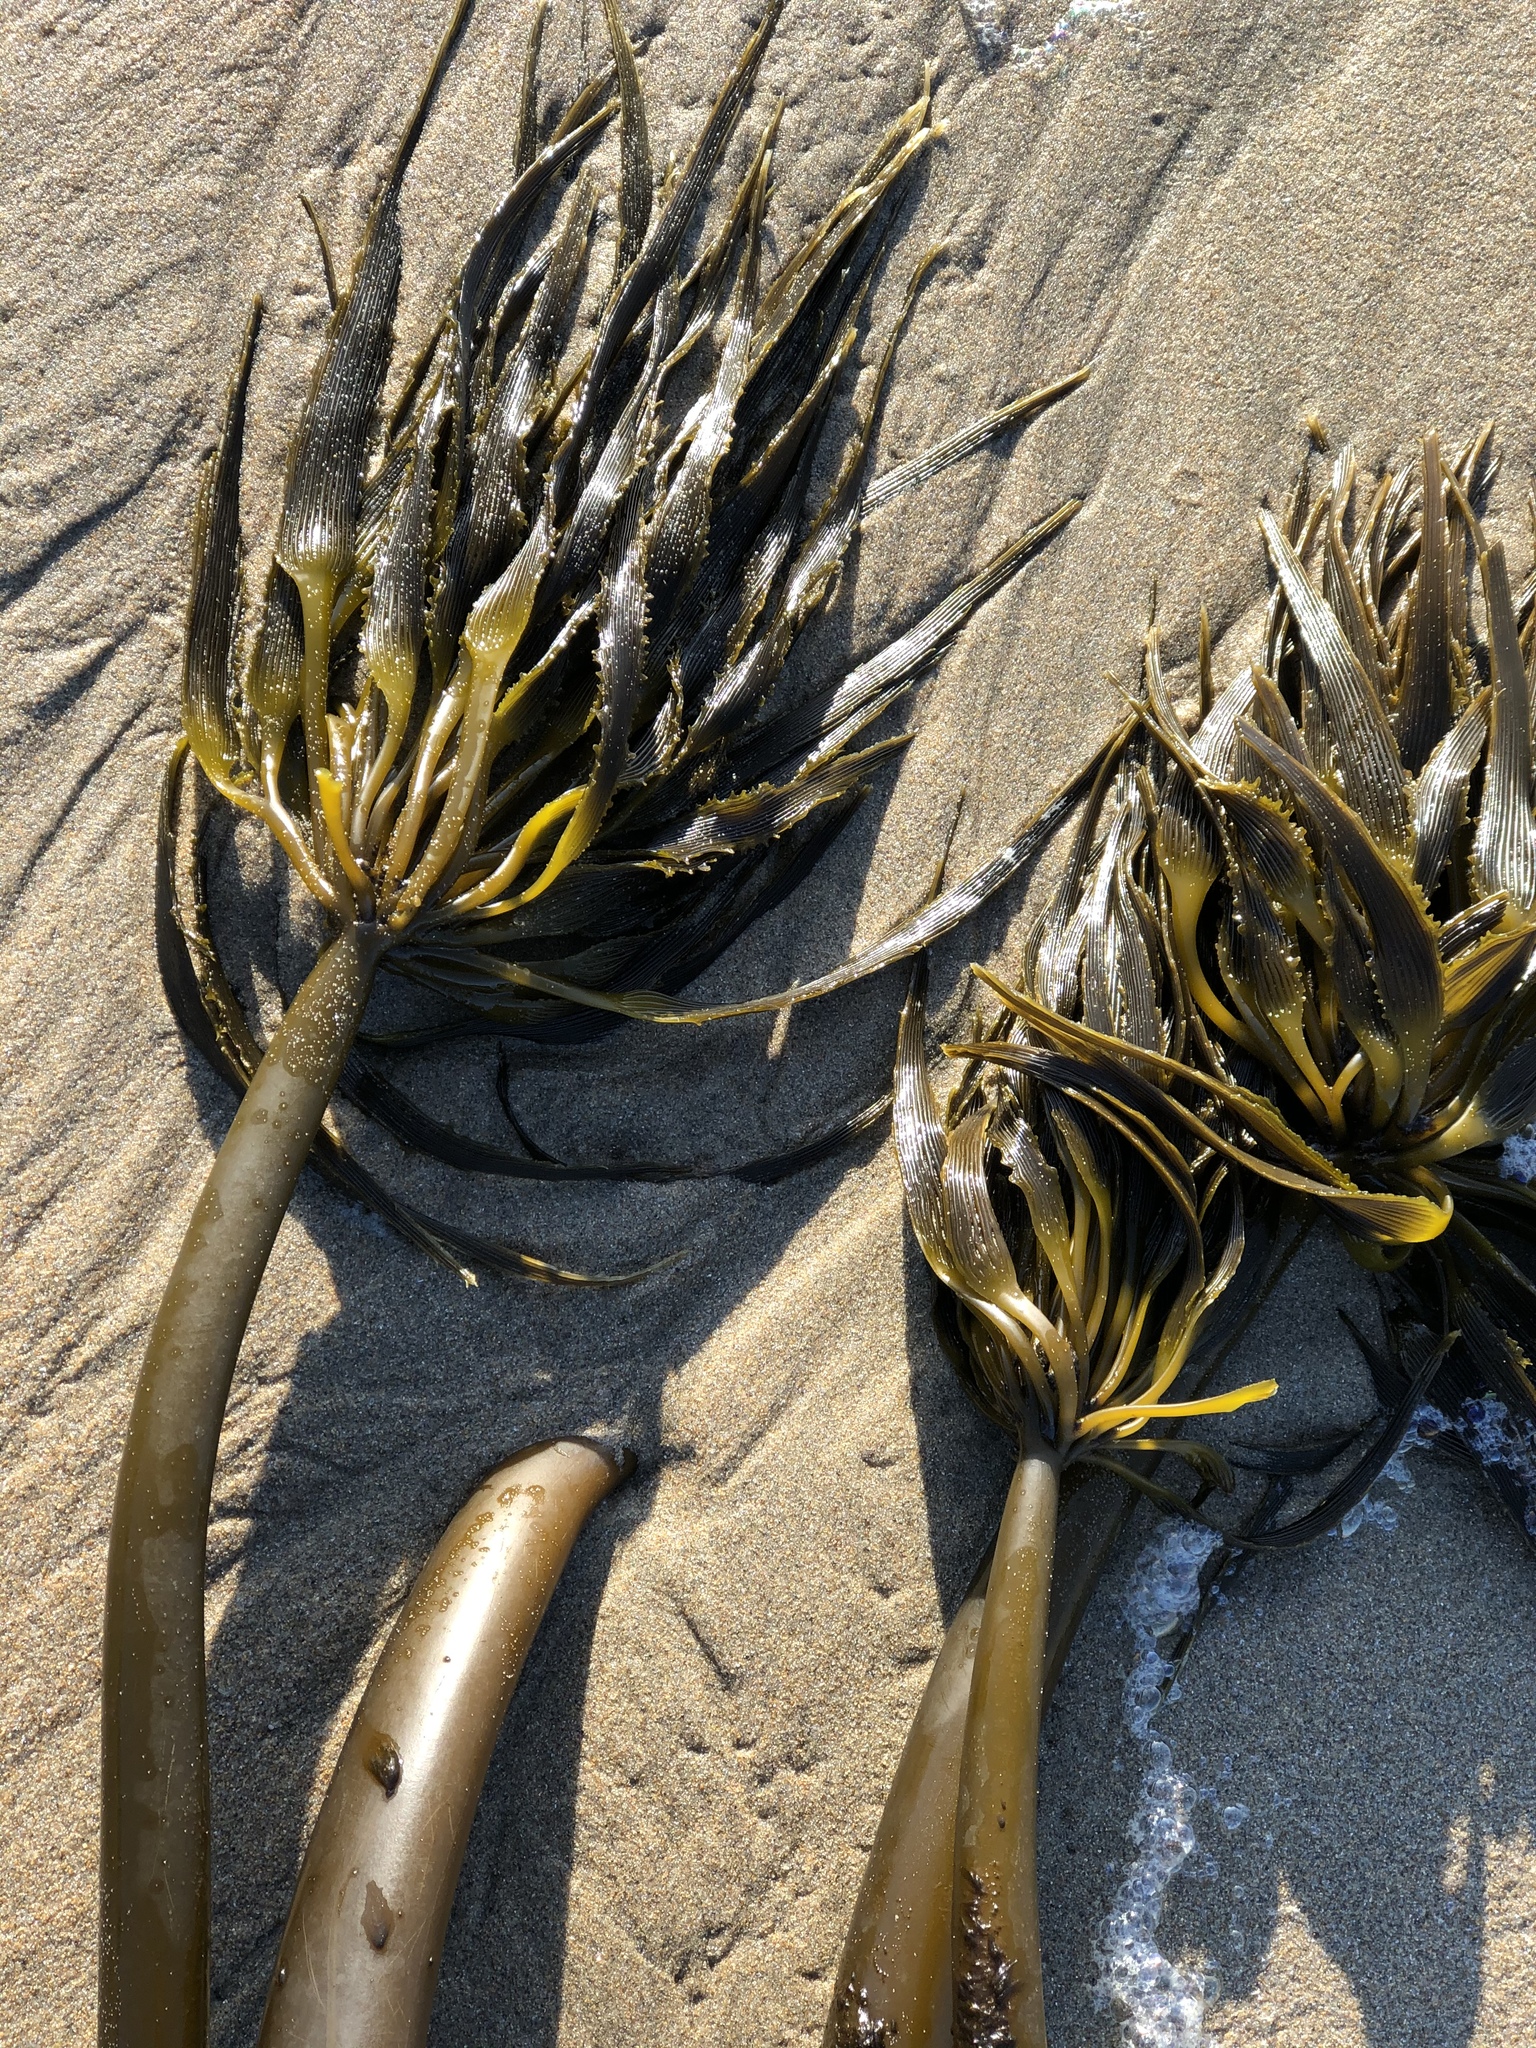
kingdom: Chromista
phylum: Ochrophyta
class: Phaeophyceae
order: Laminariales
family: Laminariaceae
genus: Postelsia
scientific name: Postelsia palmiformis
